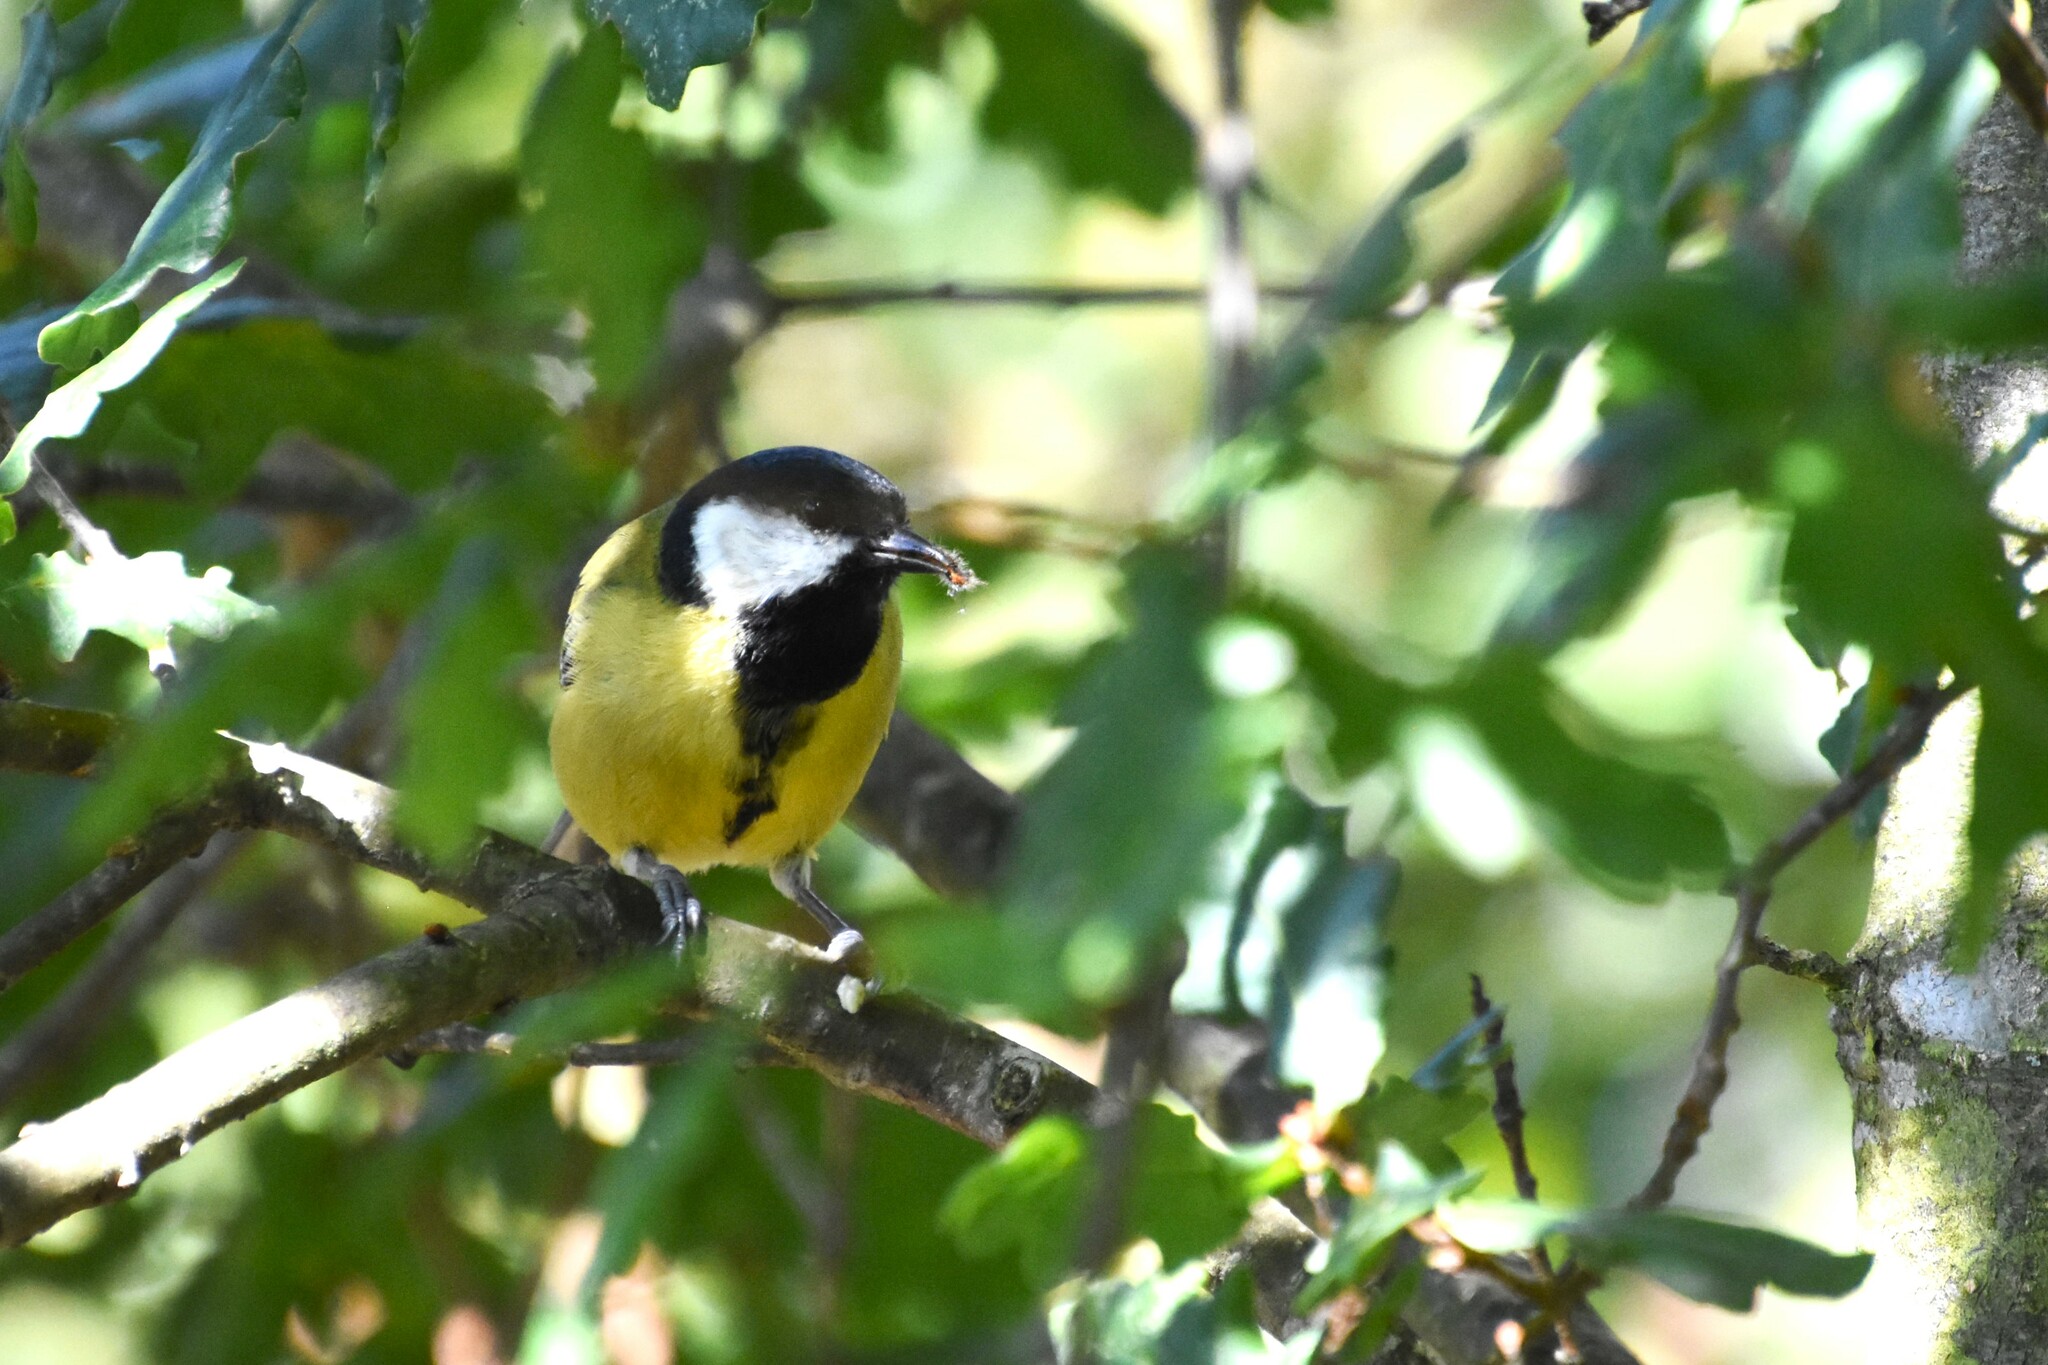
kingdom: Animalia
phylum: Chordata
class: Aves
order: Passeriformes
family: Paridae
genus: Parus
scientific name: Parus major
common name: Great tit
